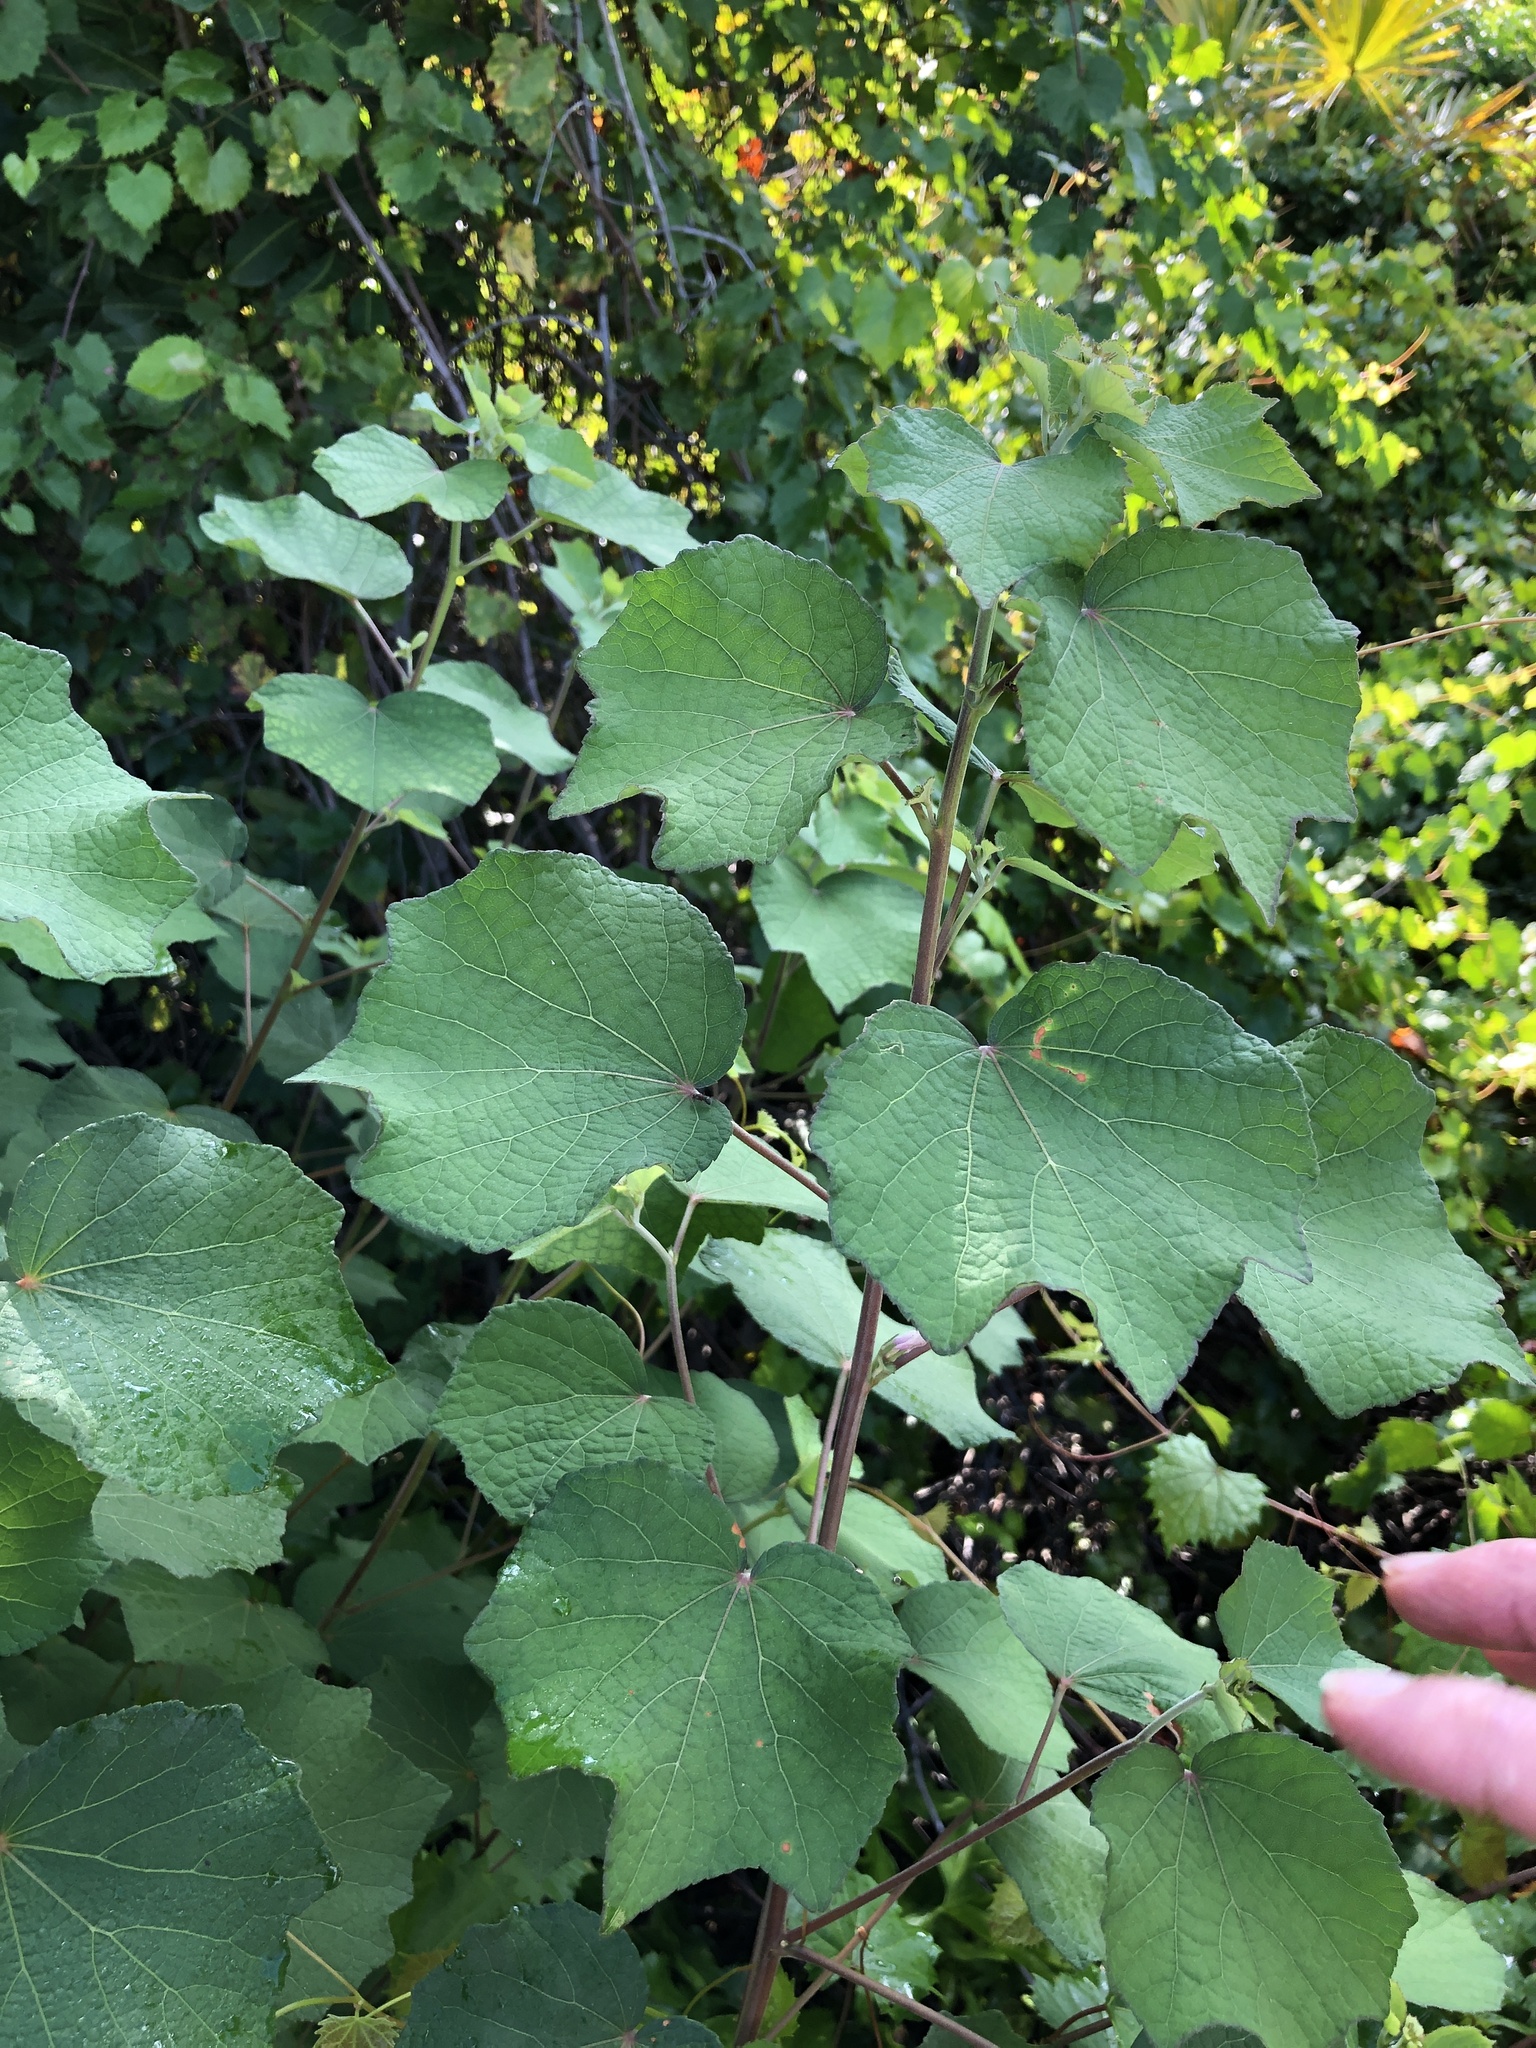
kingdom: Plantae
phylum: Tracheophyta
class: Magnoliopsida
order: Malvales
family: Malvaceae
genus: Urena
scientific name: Urena lobata
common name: Caesarweed
